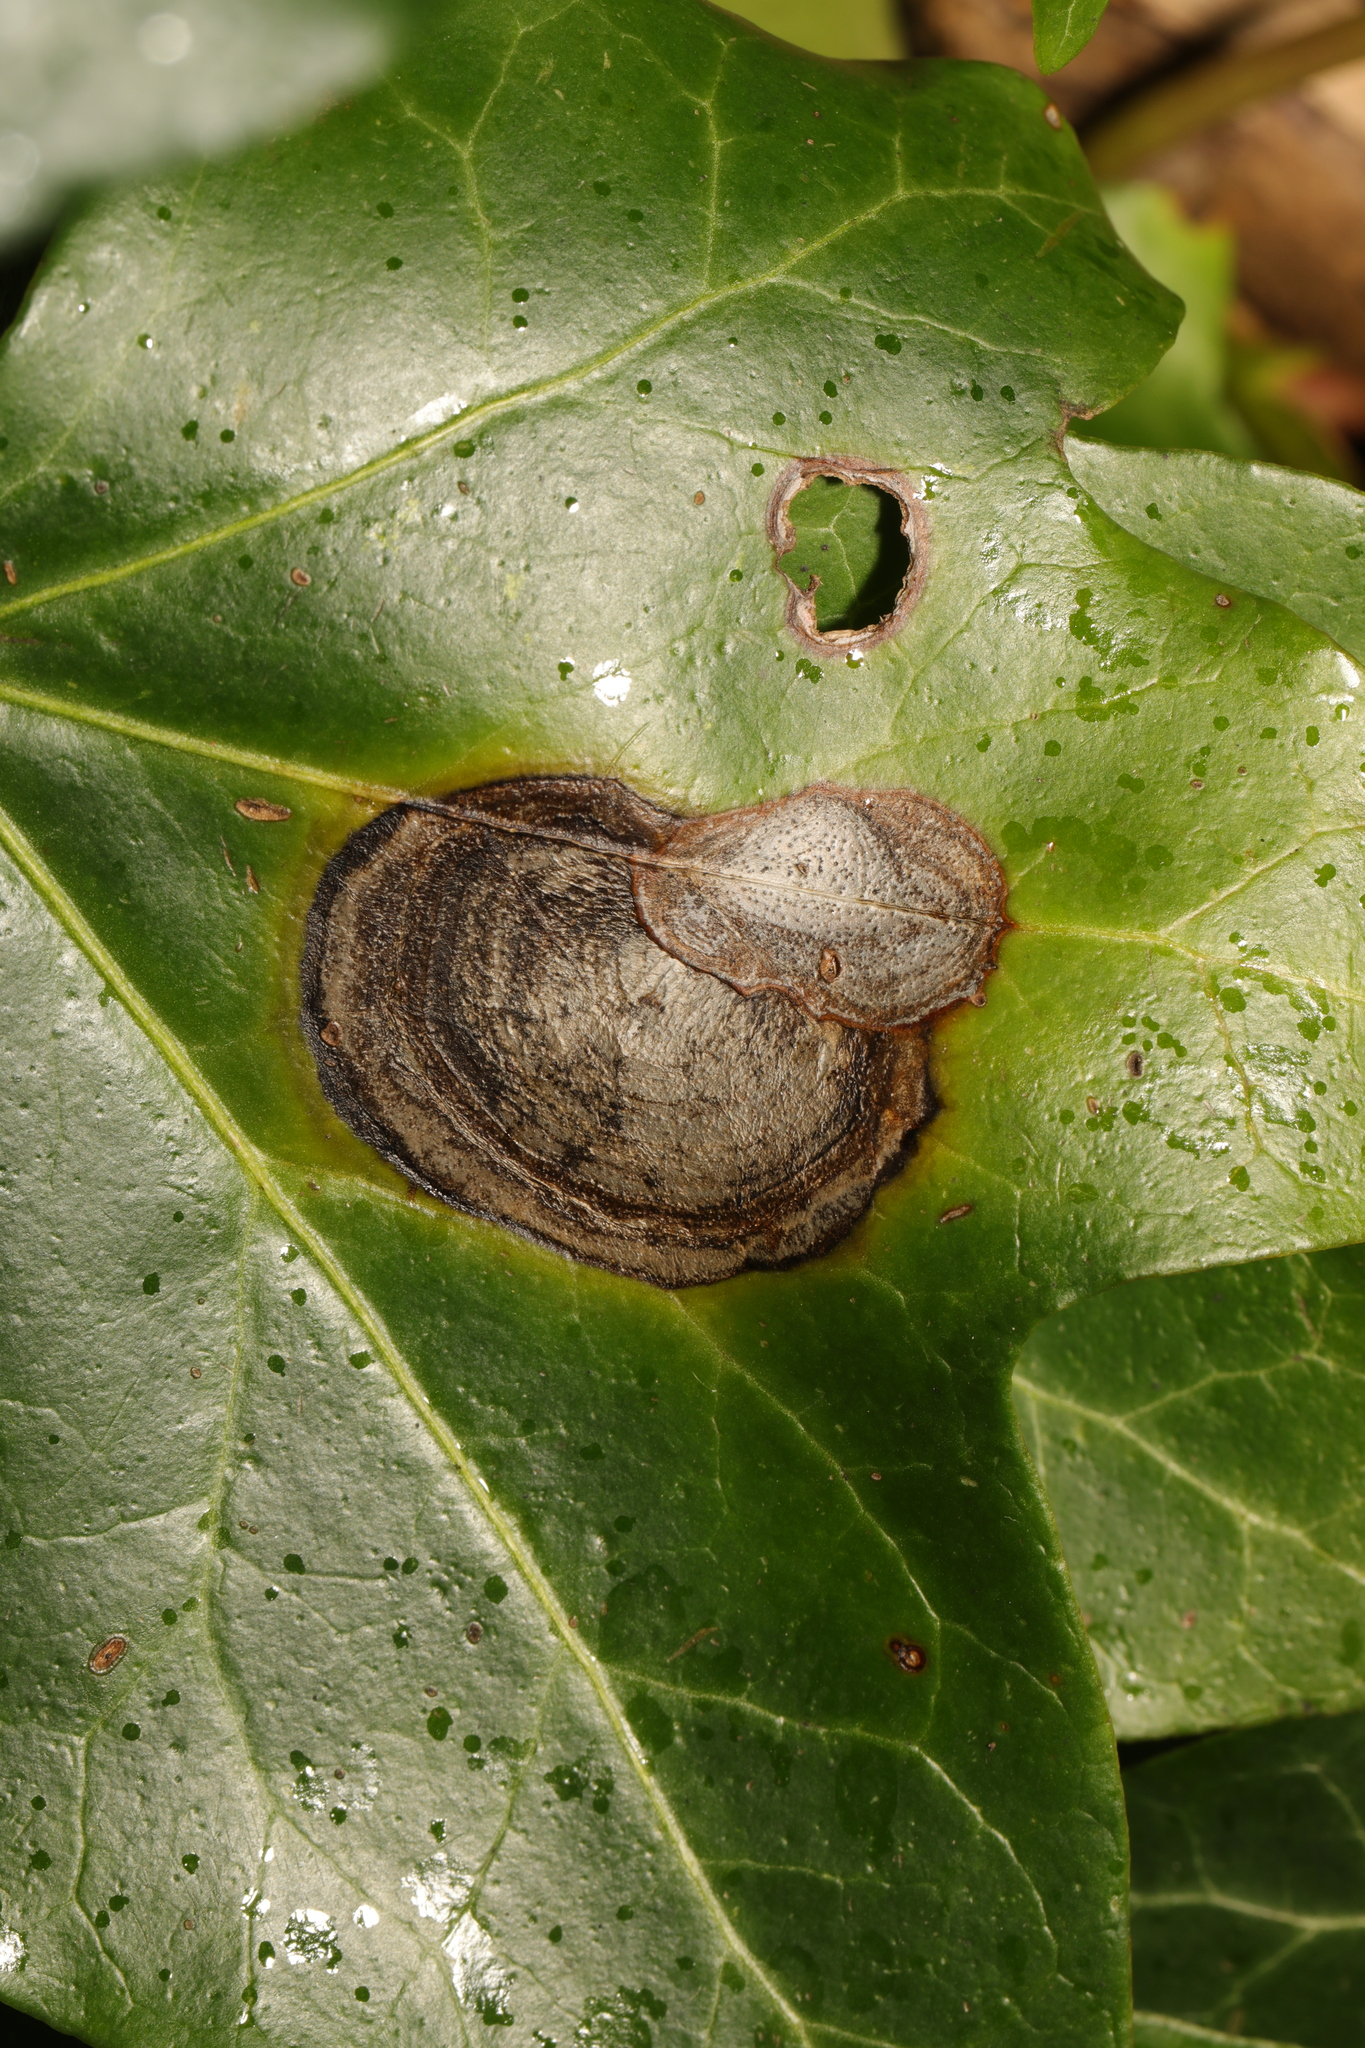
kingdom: Fungi
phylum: Ascomycota
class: Dothideomycetes
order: Pleosporales
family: Didymellaceae
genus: Boeremia
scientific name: Boeremia hedericola
